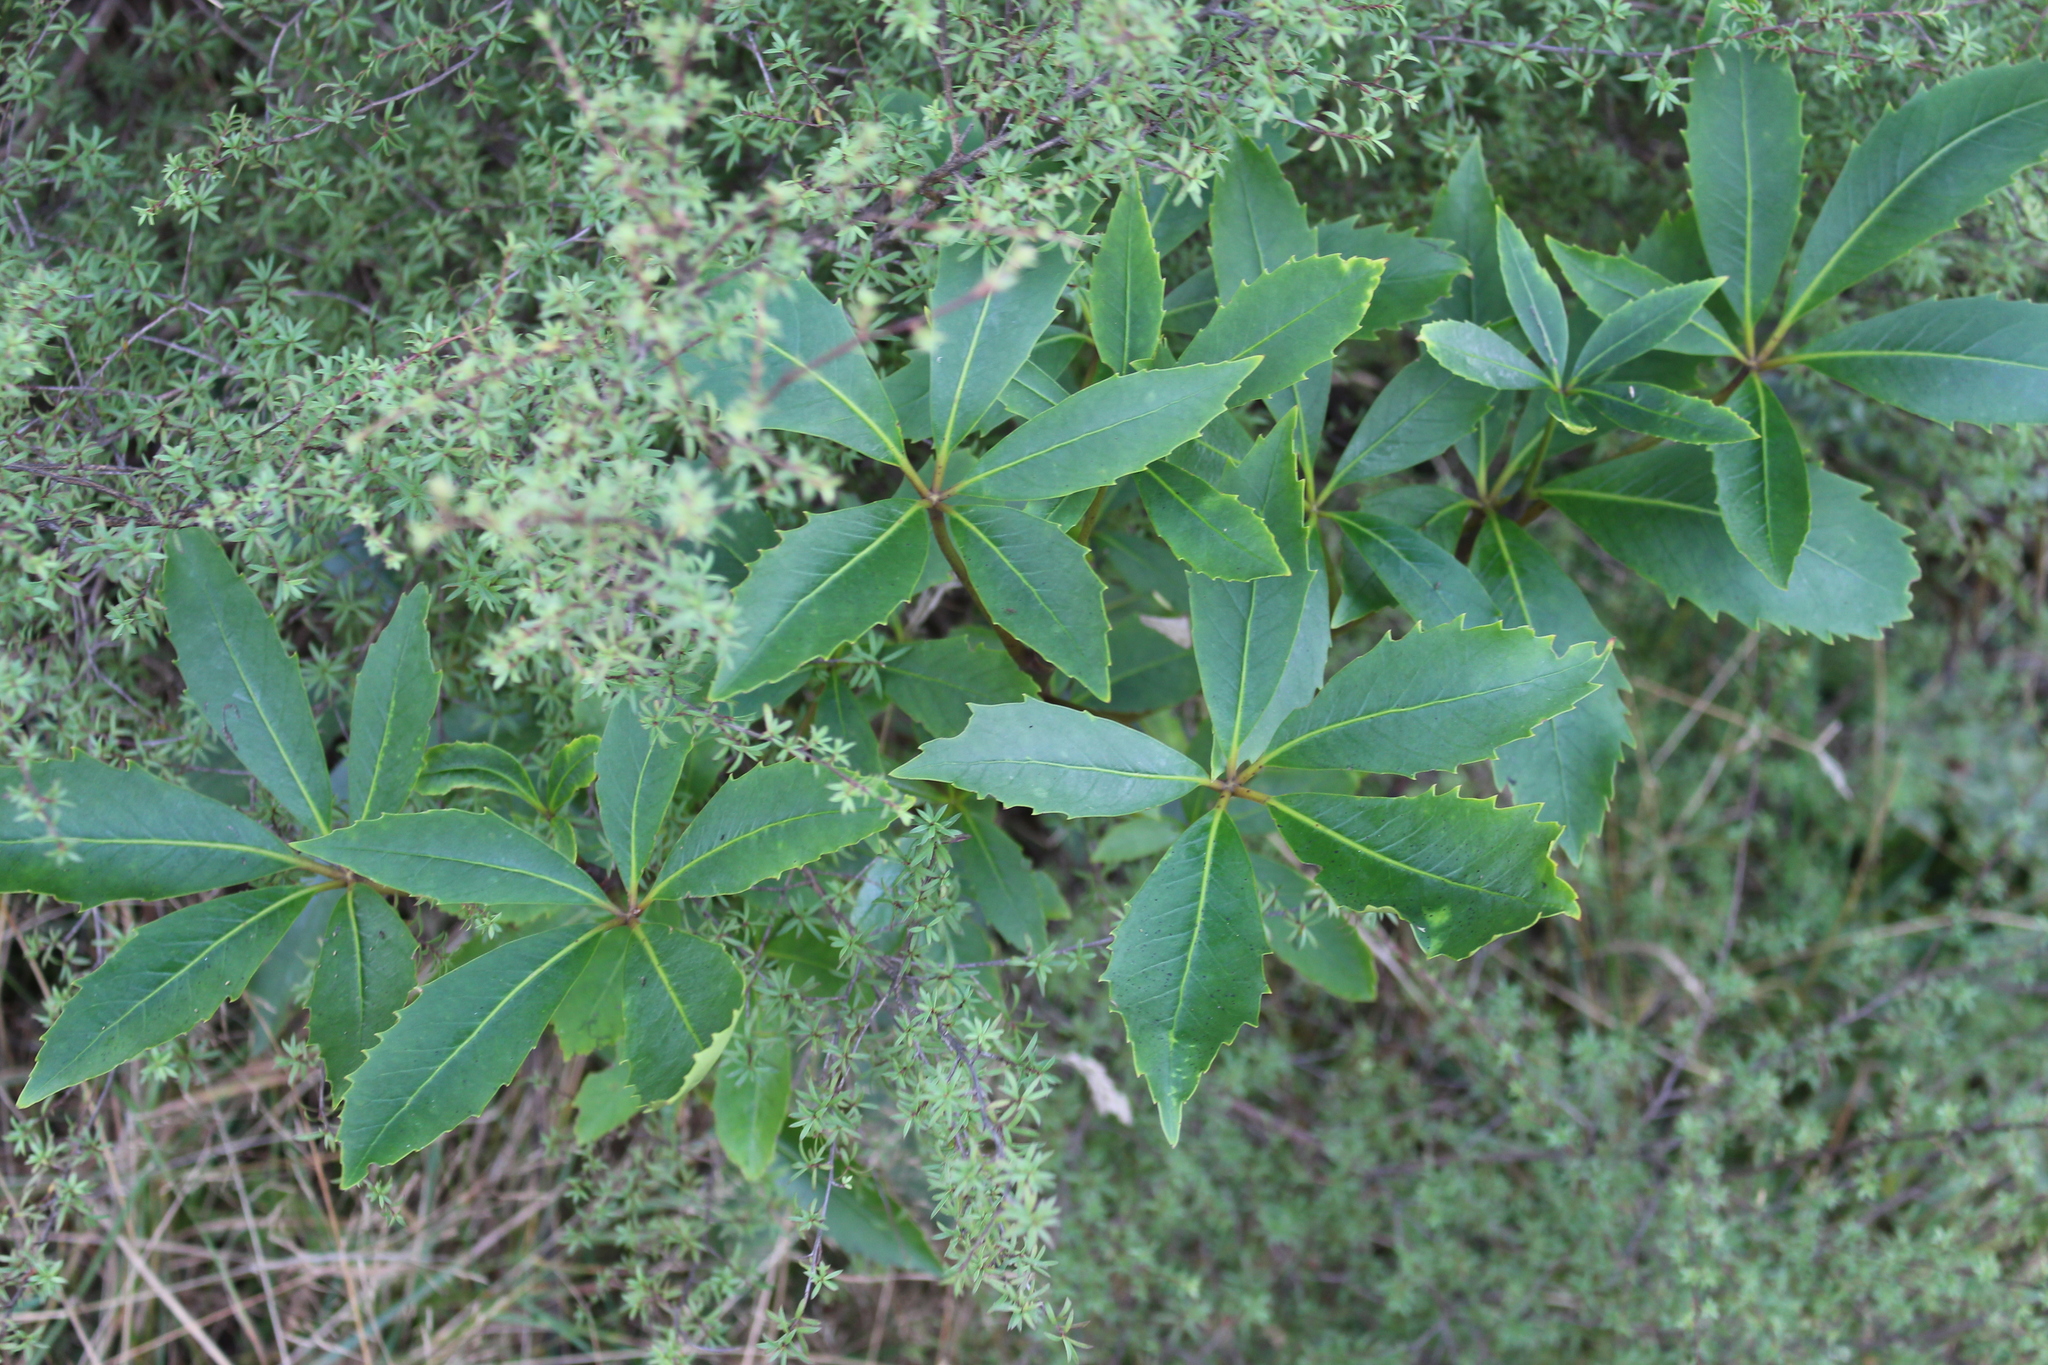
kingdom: Plantae
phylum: Tracheophyta
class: Magnoliopsida
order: Apiales
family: Araliaceae
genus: Neopanax
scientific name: Neopanax colensoi
